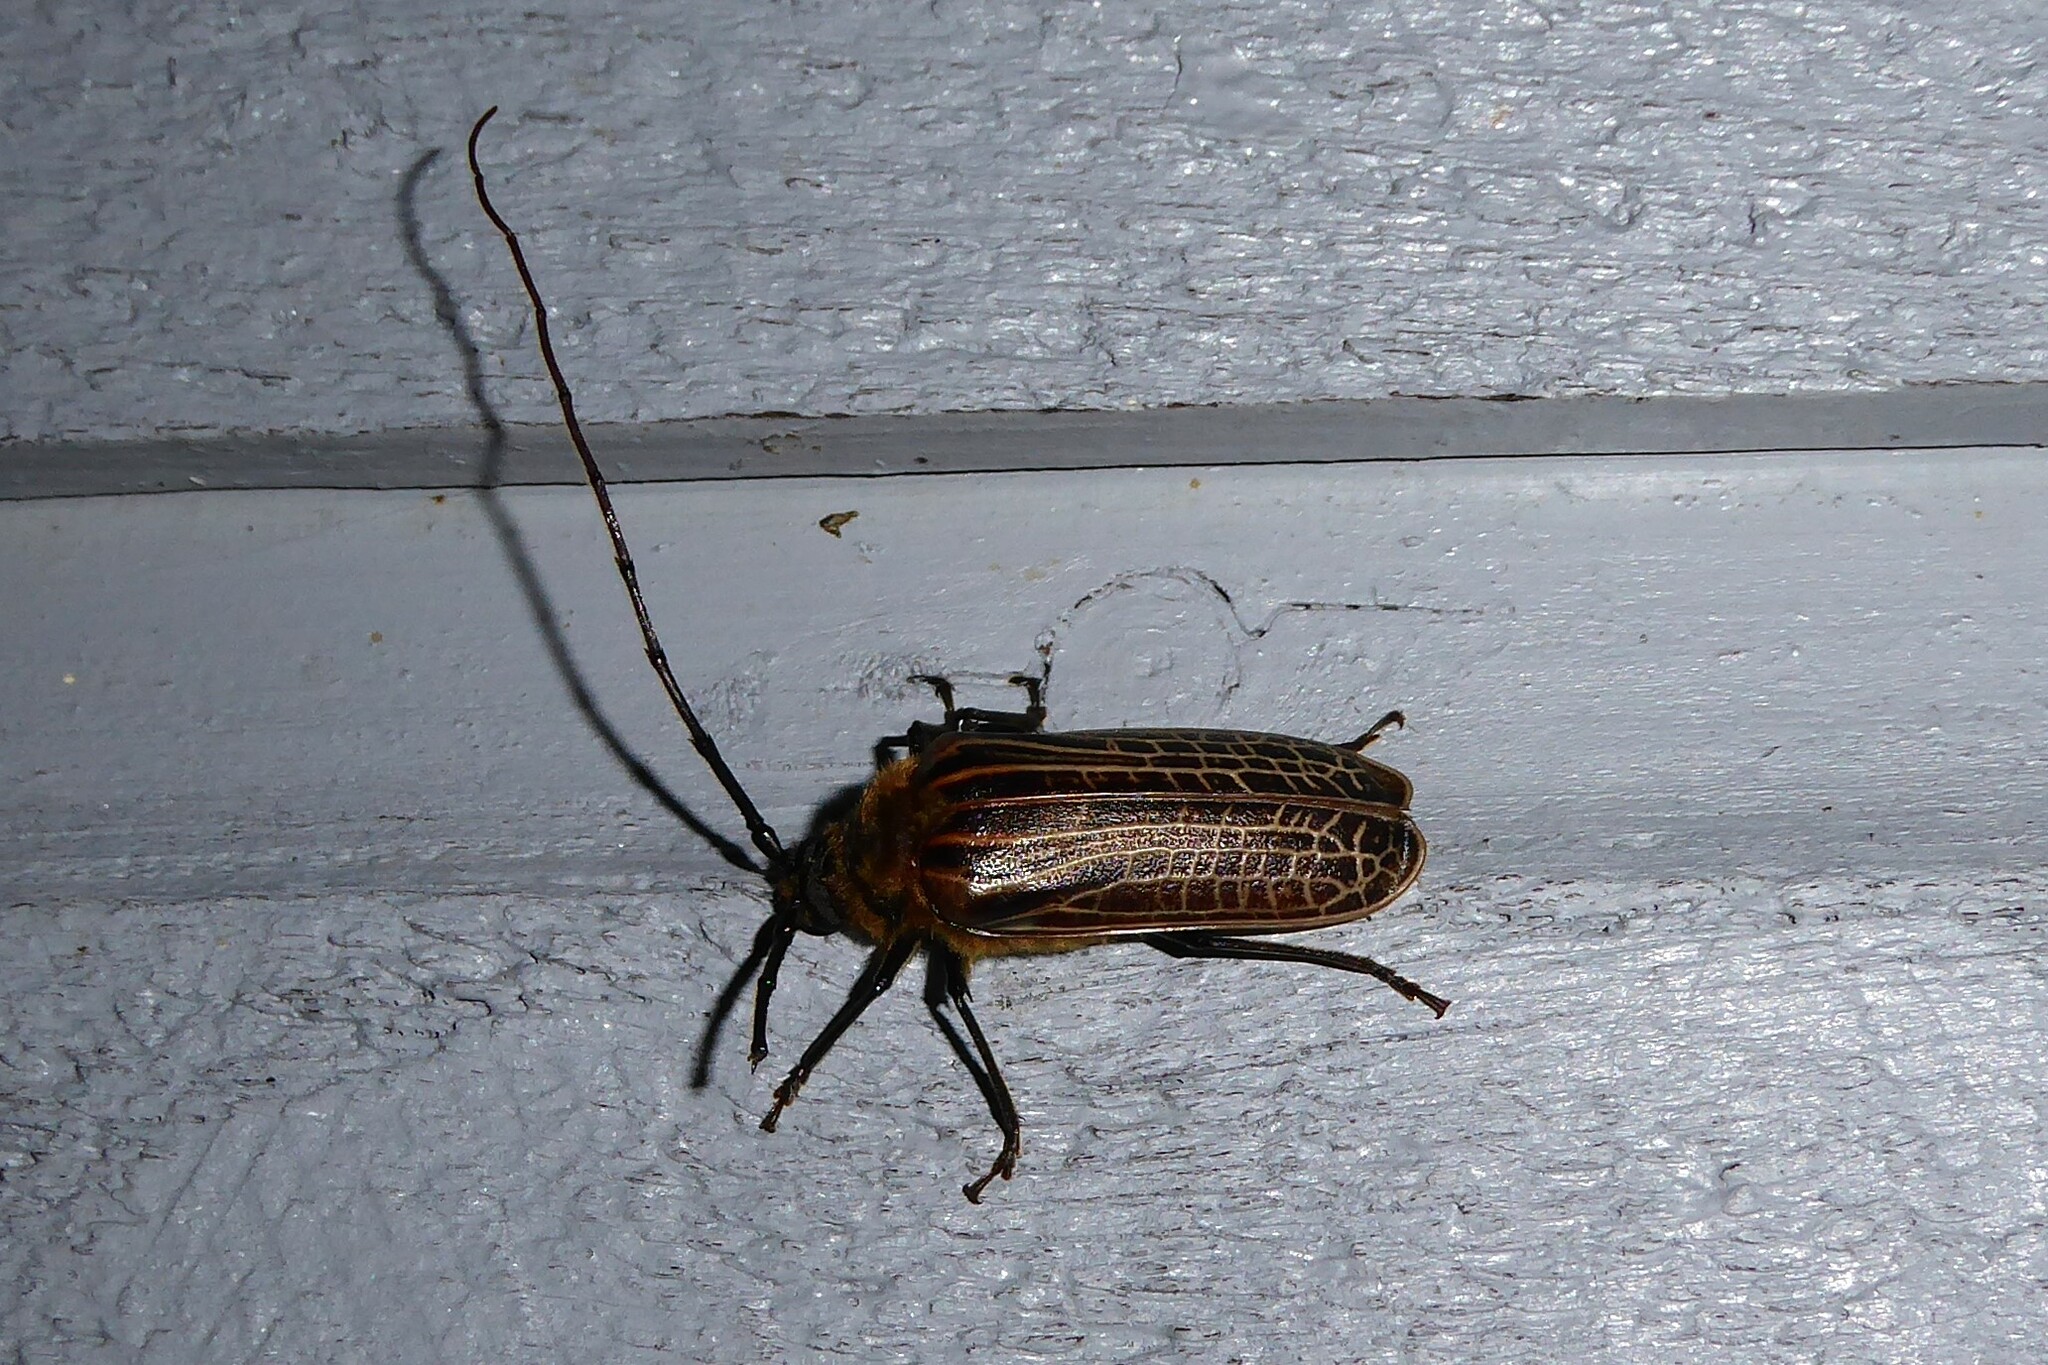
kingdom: Animalia
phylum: Arthropoda
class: Insecta
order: Coleoptera
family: Cerambycidae
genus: Prionoplus
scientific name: Prionoplus reticularis
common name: Huhu beetle
